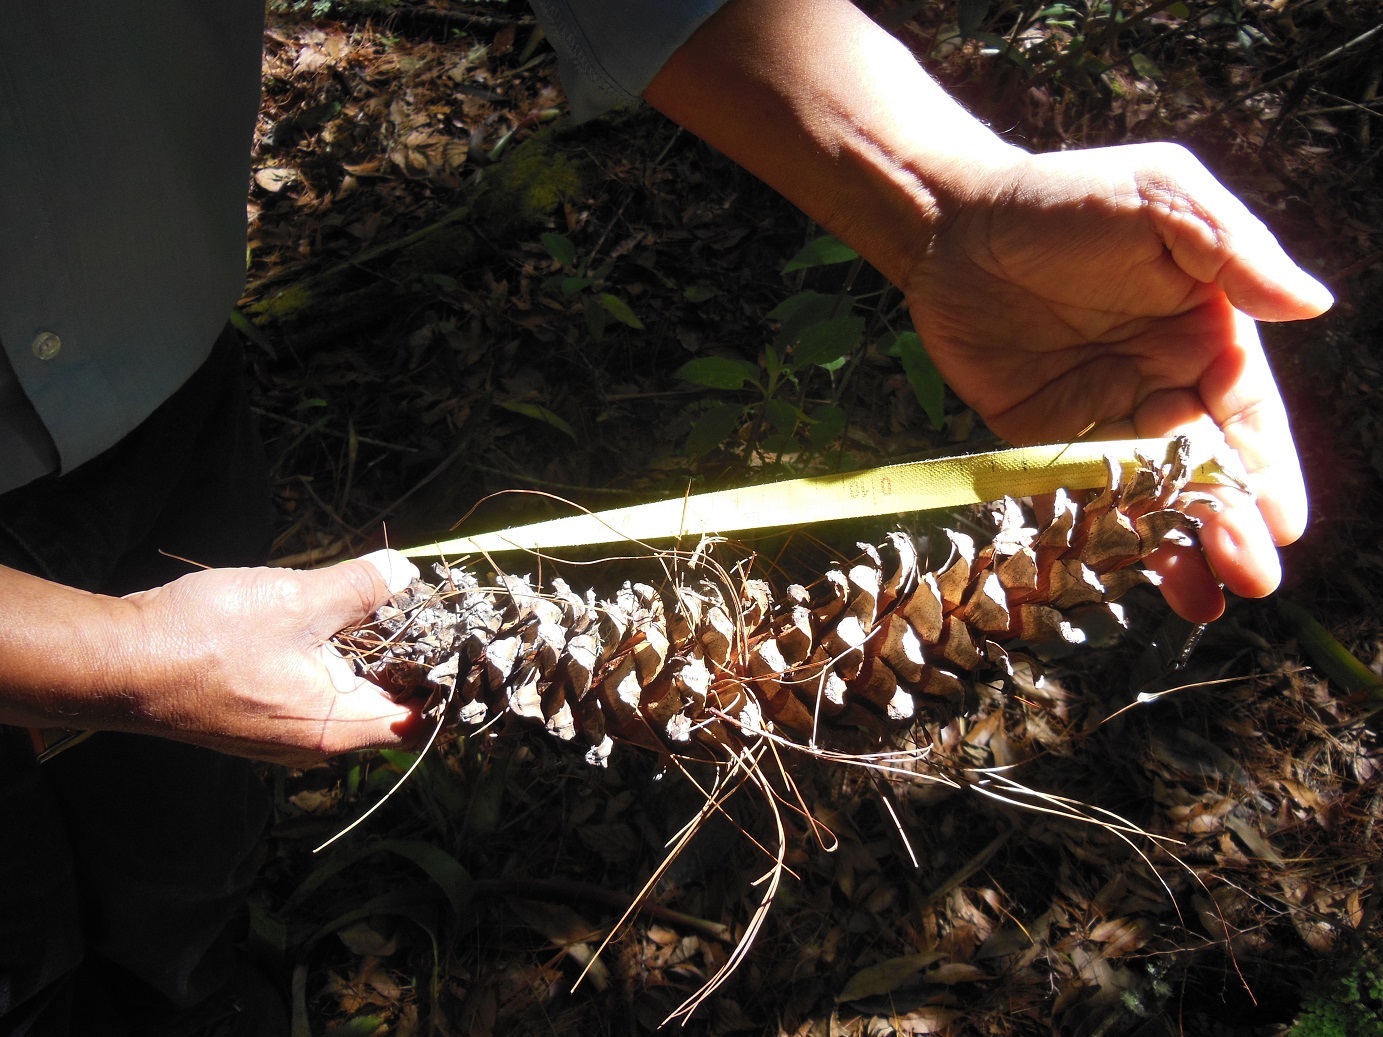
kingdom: Plantae
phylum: Tracheophyta
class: Pinopsida
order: Pinales
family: Pinaceae
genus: Pinus
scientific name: Pinus ayacahuite
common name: Mexican white pine
